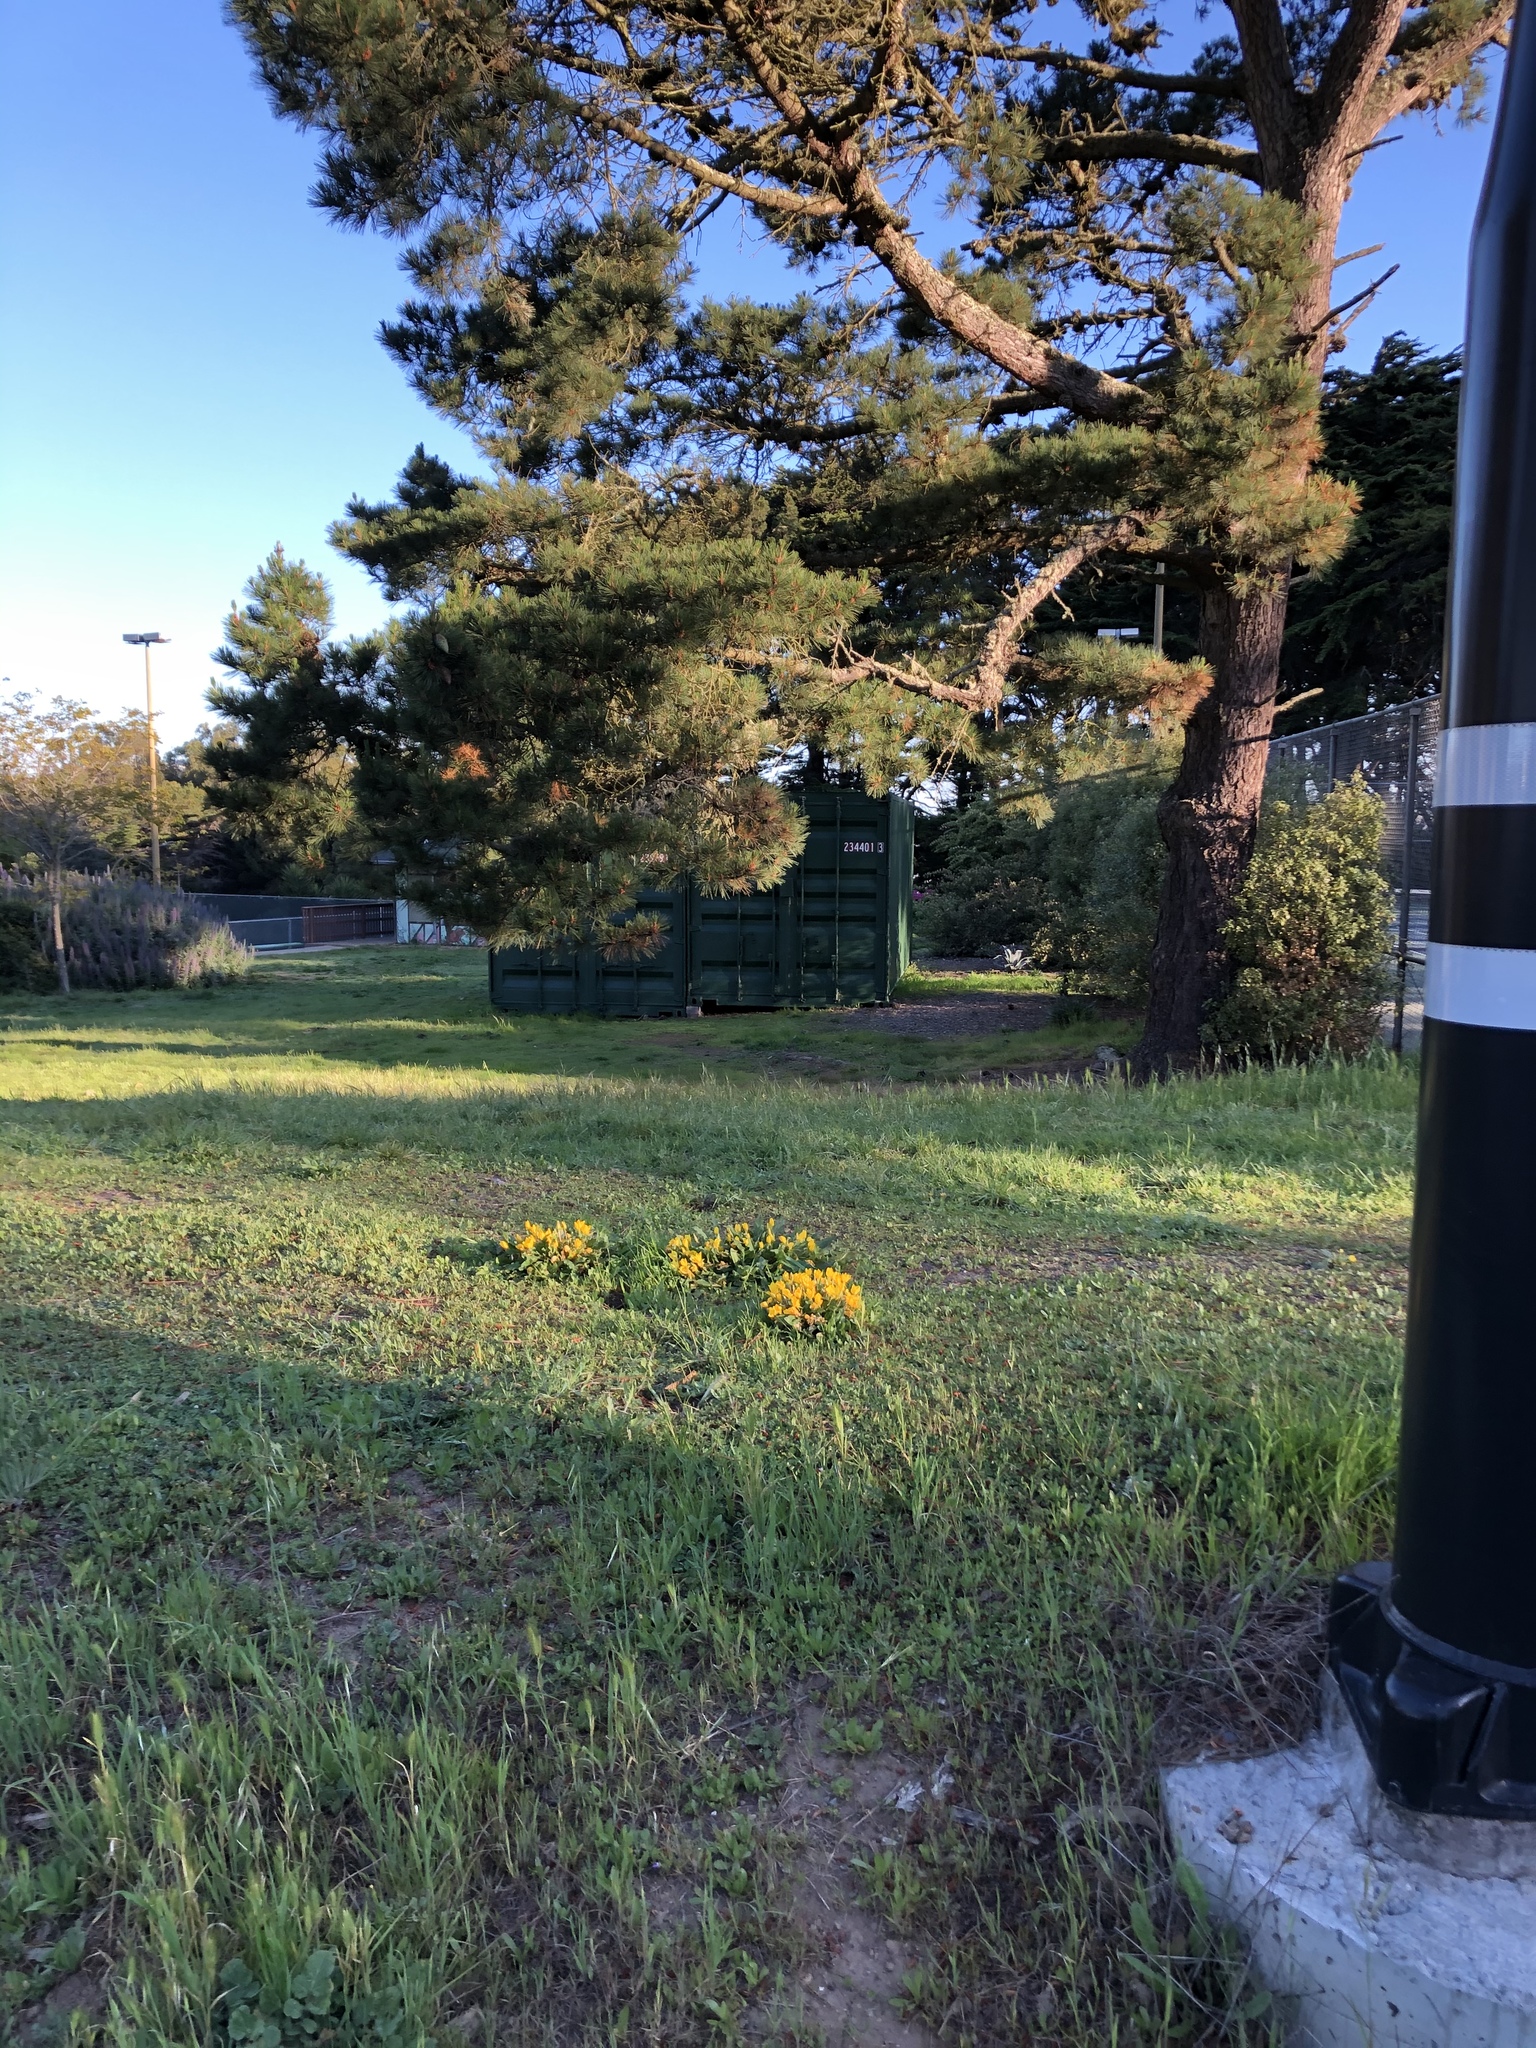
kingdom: Plantae
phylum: Tracheophyta
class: Magnoliopsida
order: Myrtales
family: Onagraceae
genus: Taraxia
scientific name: Taraxia ovata
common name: Goldeneggs
